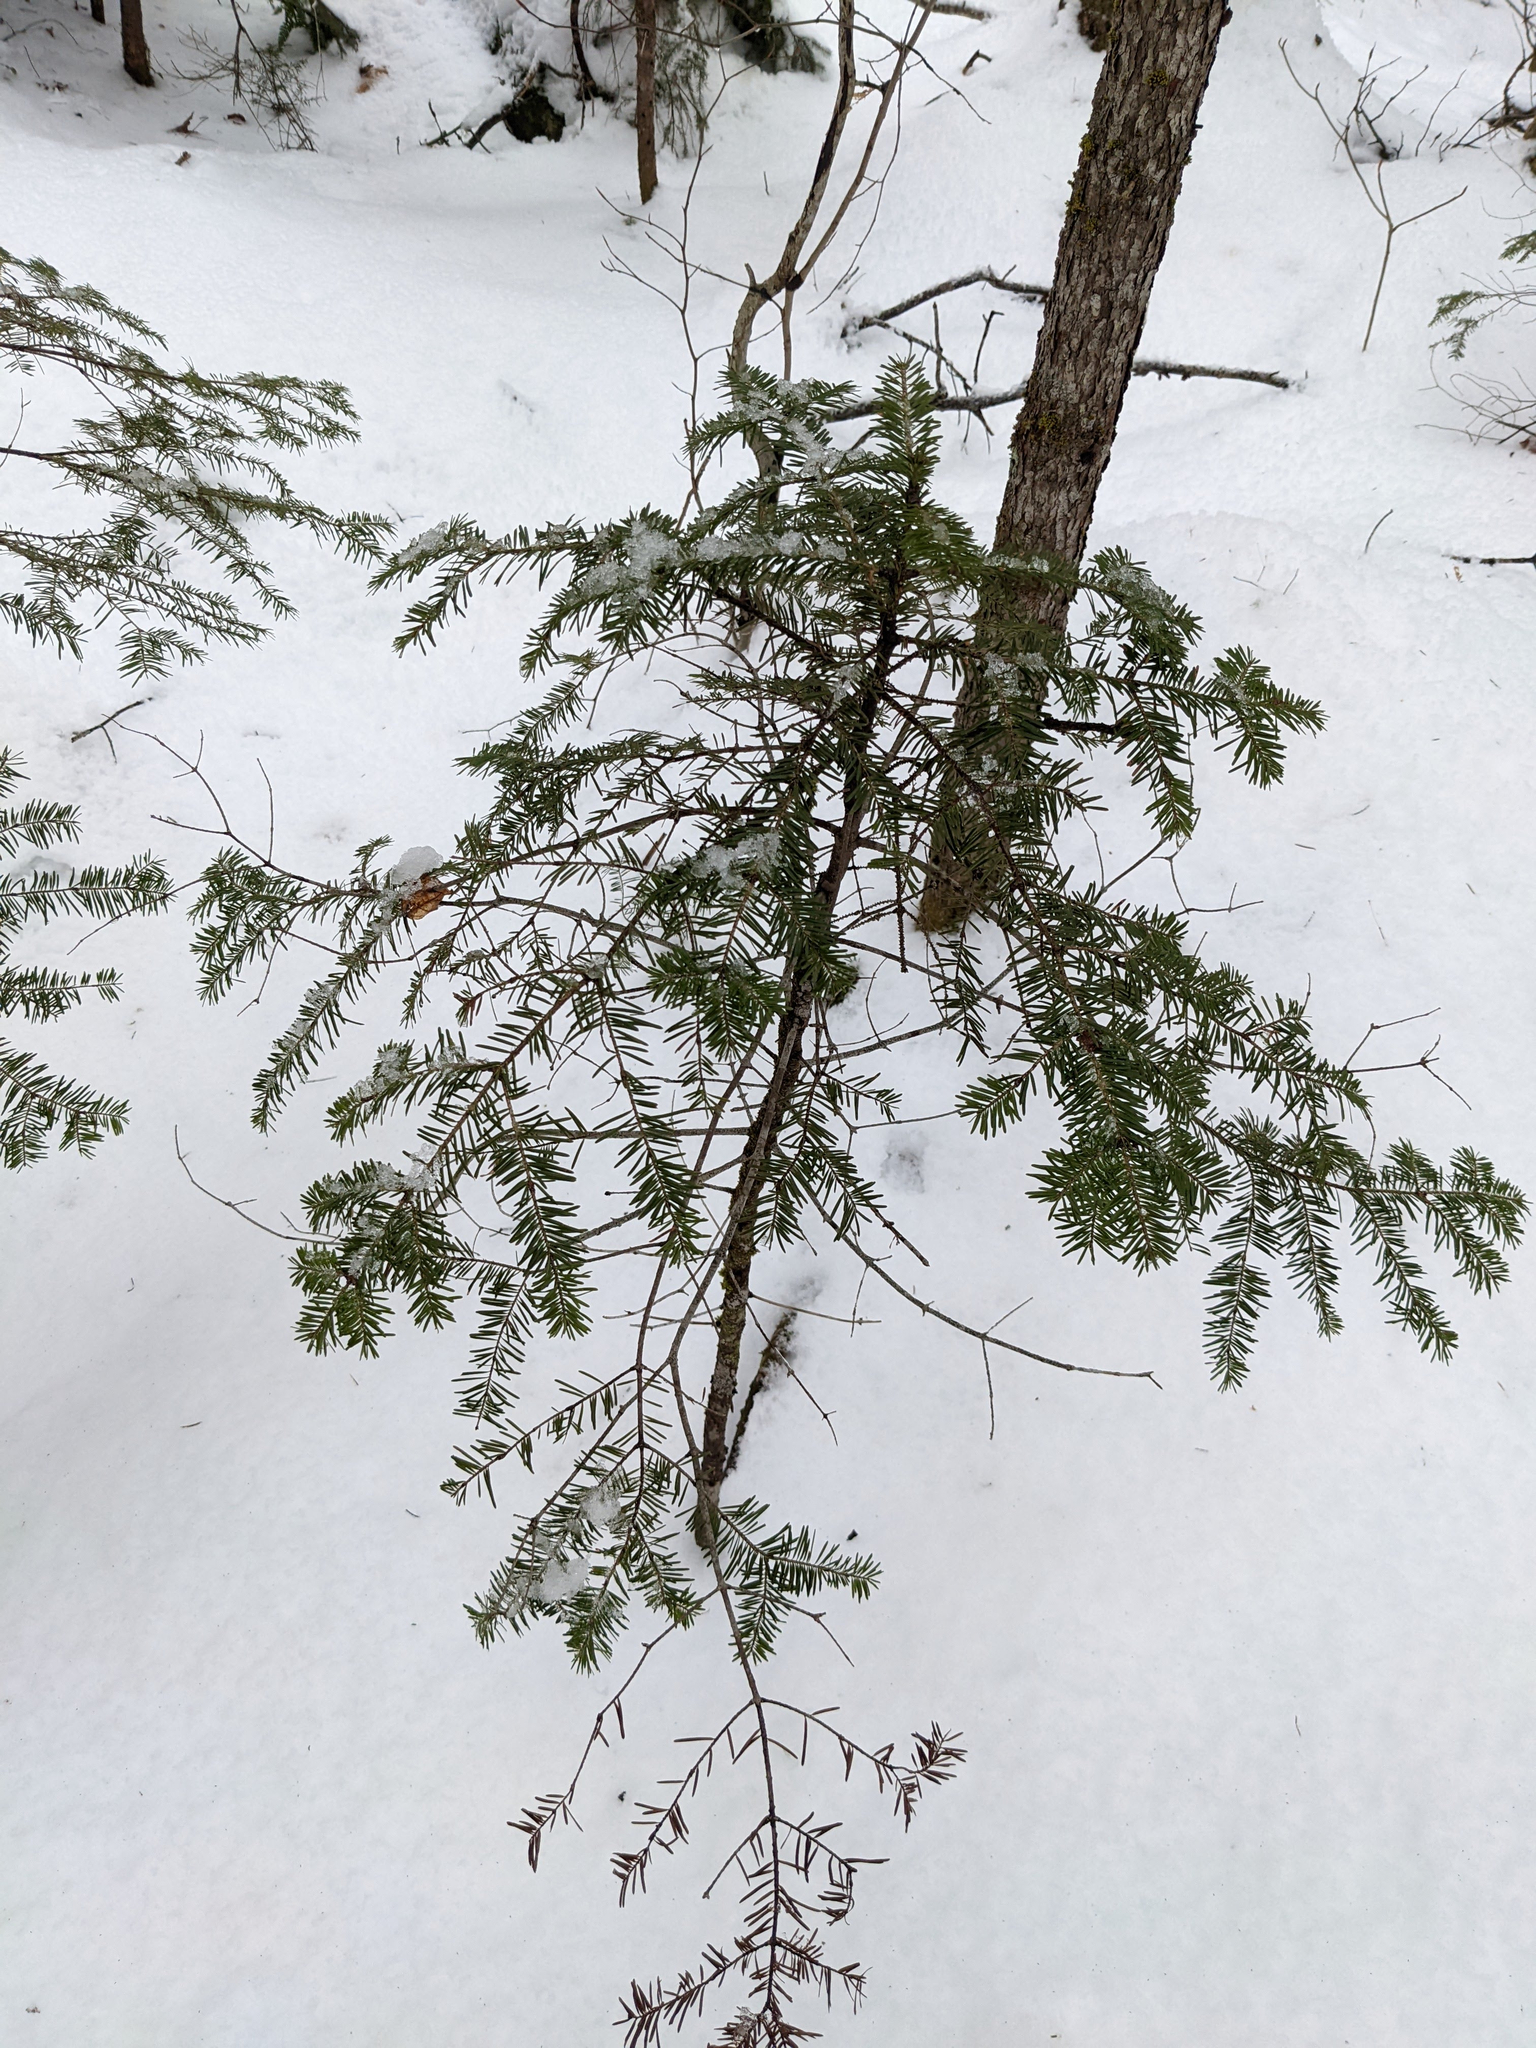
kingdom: Plantae
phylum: Tracheophyta
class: Pinopsida
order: Pinales
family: Pinaceae
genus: Abies
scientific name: Abies balsamea
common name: Balsam fir
